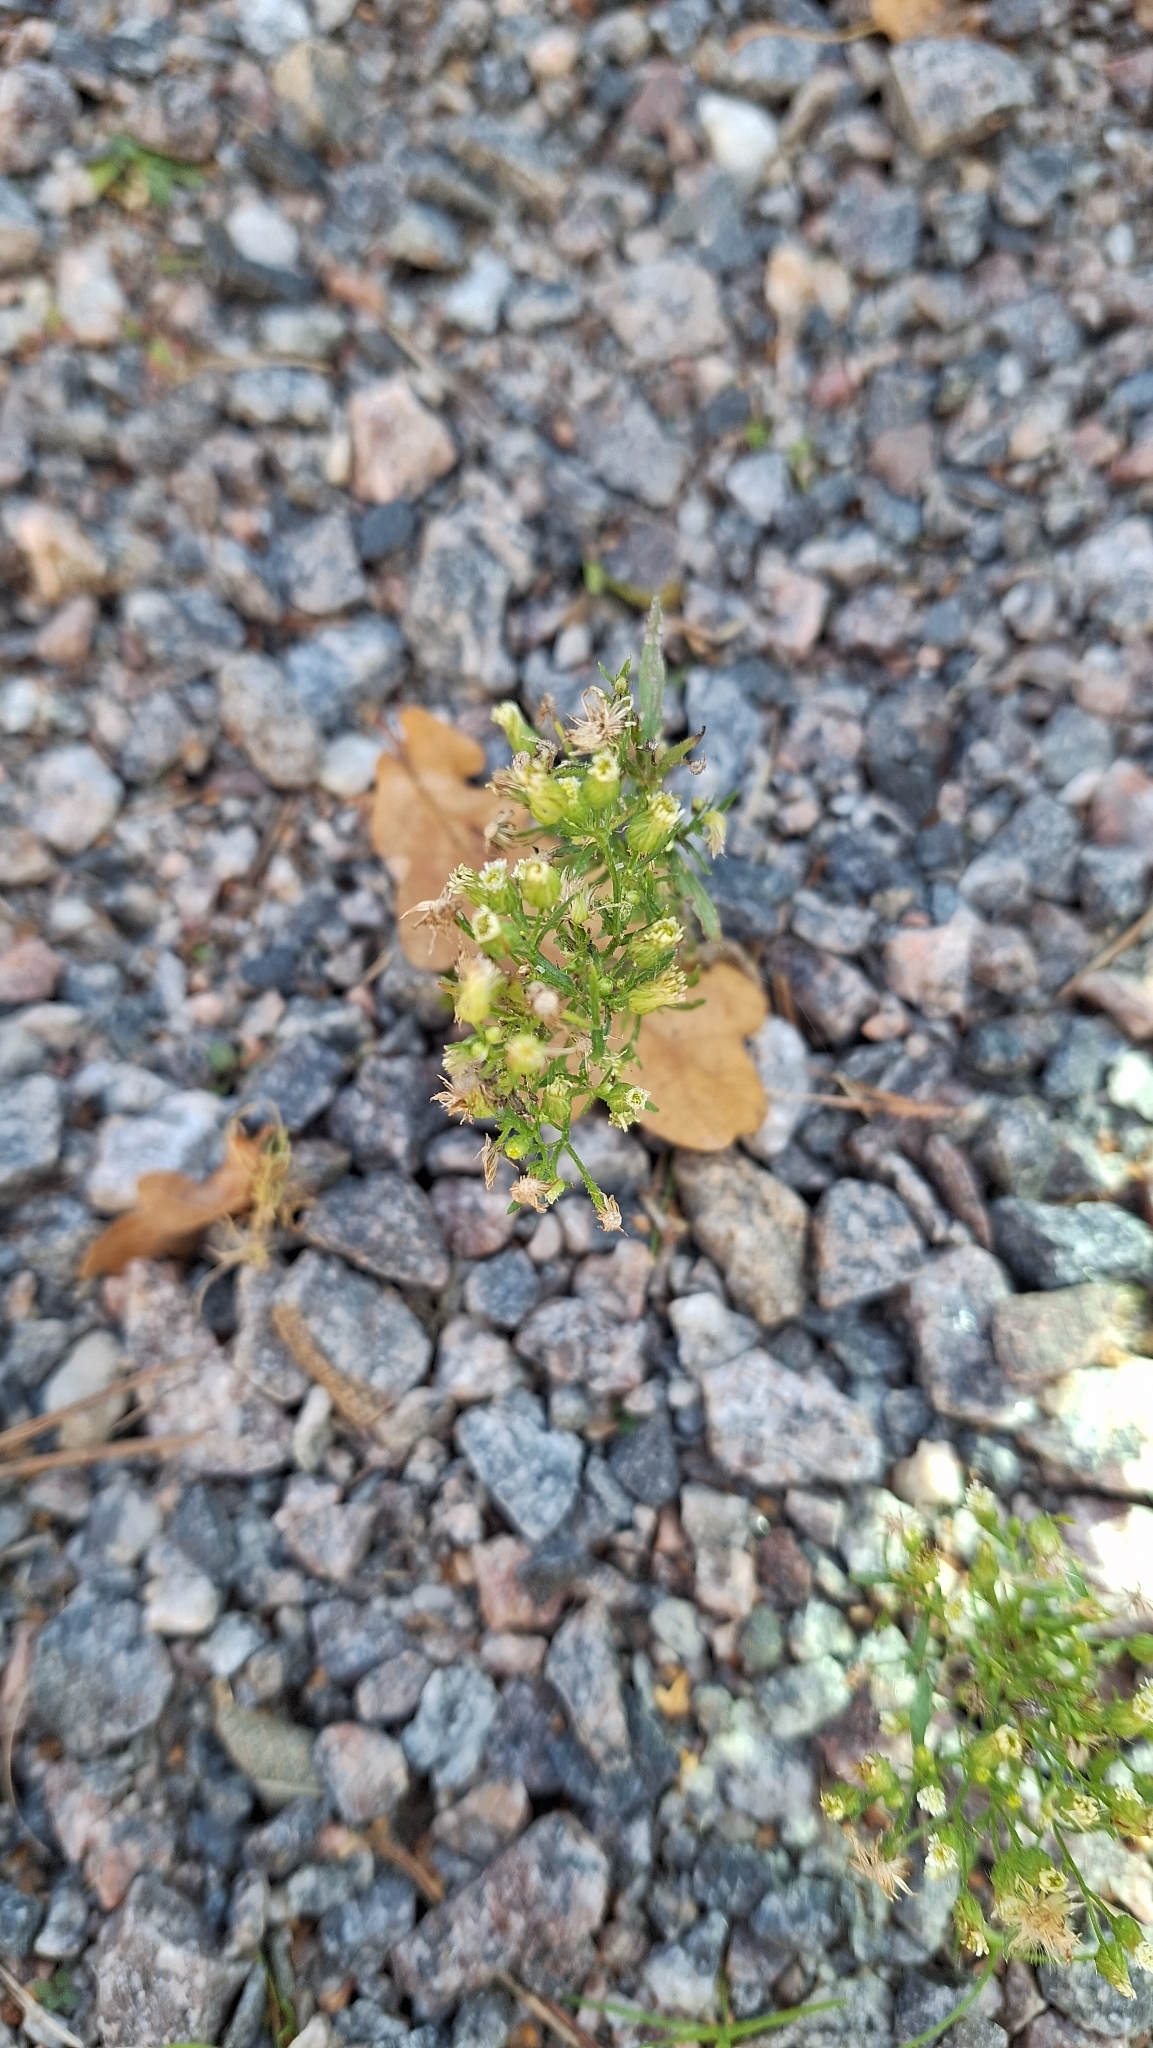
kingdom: Plantae
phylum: Tracheophyta
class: Magnoliopsida
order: Asterales
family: Asteraceae
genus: Erigeron
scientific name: Erigeron canadensis
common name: Canadian fleabane
